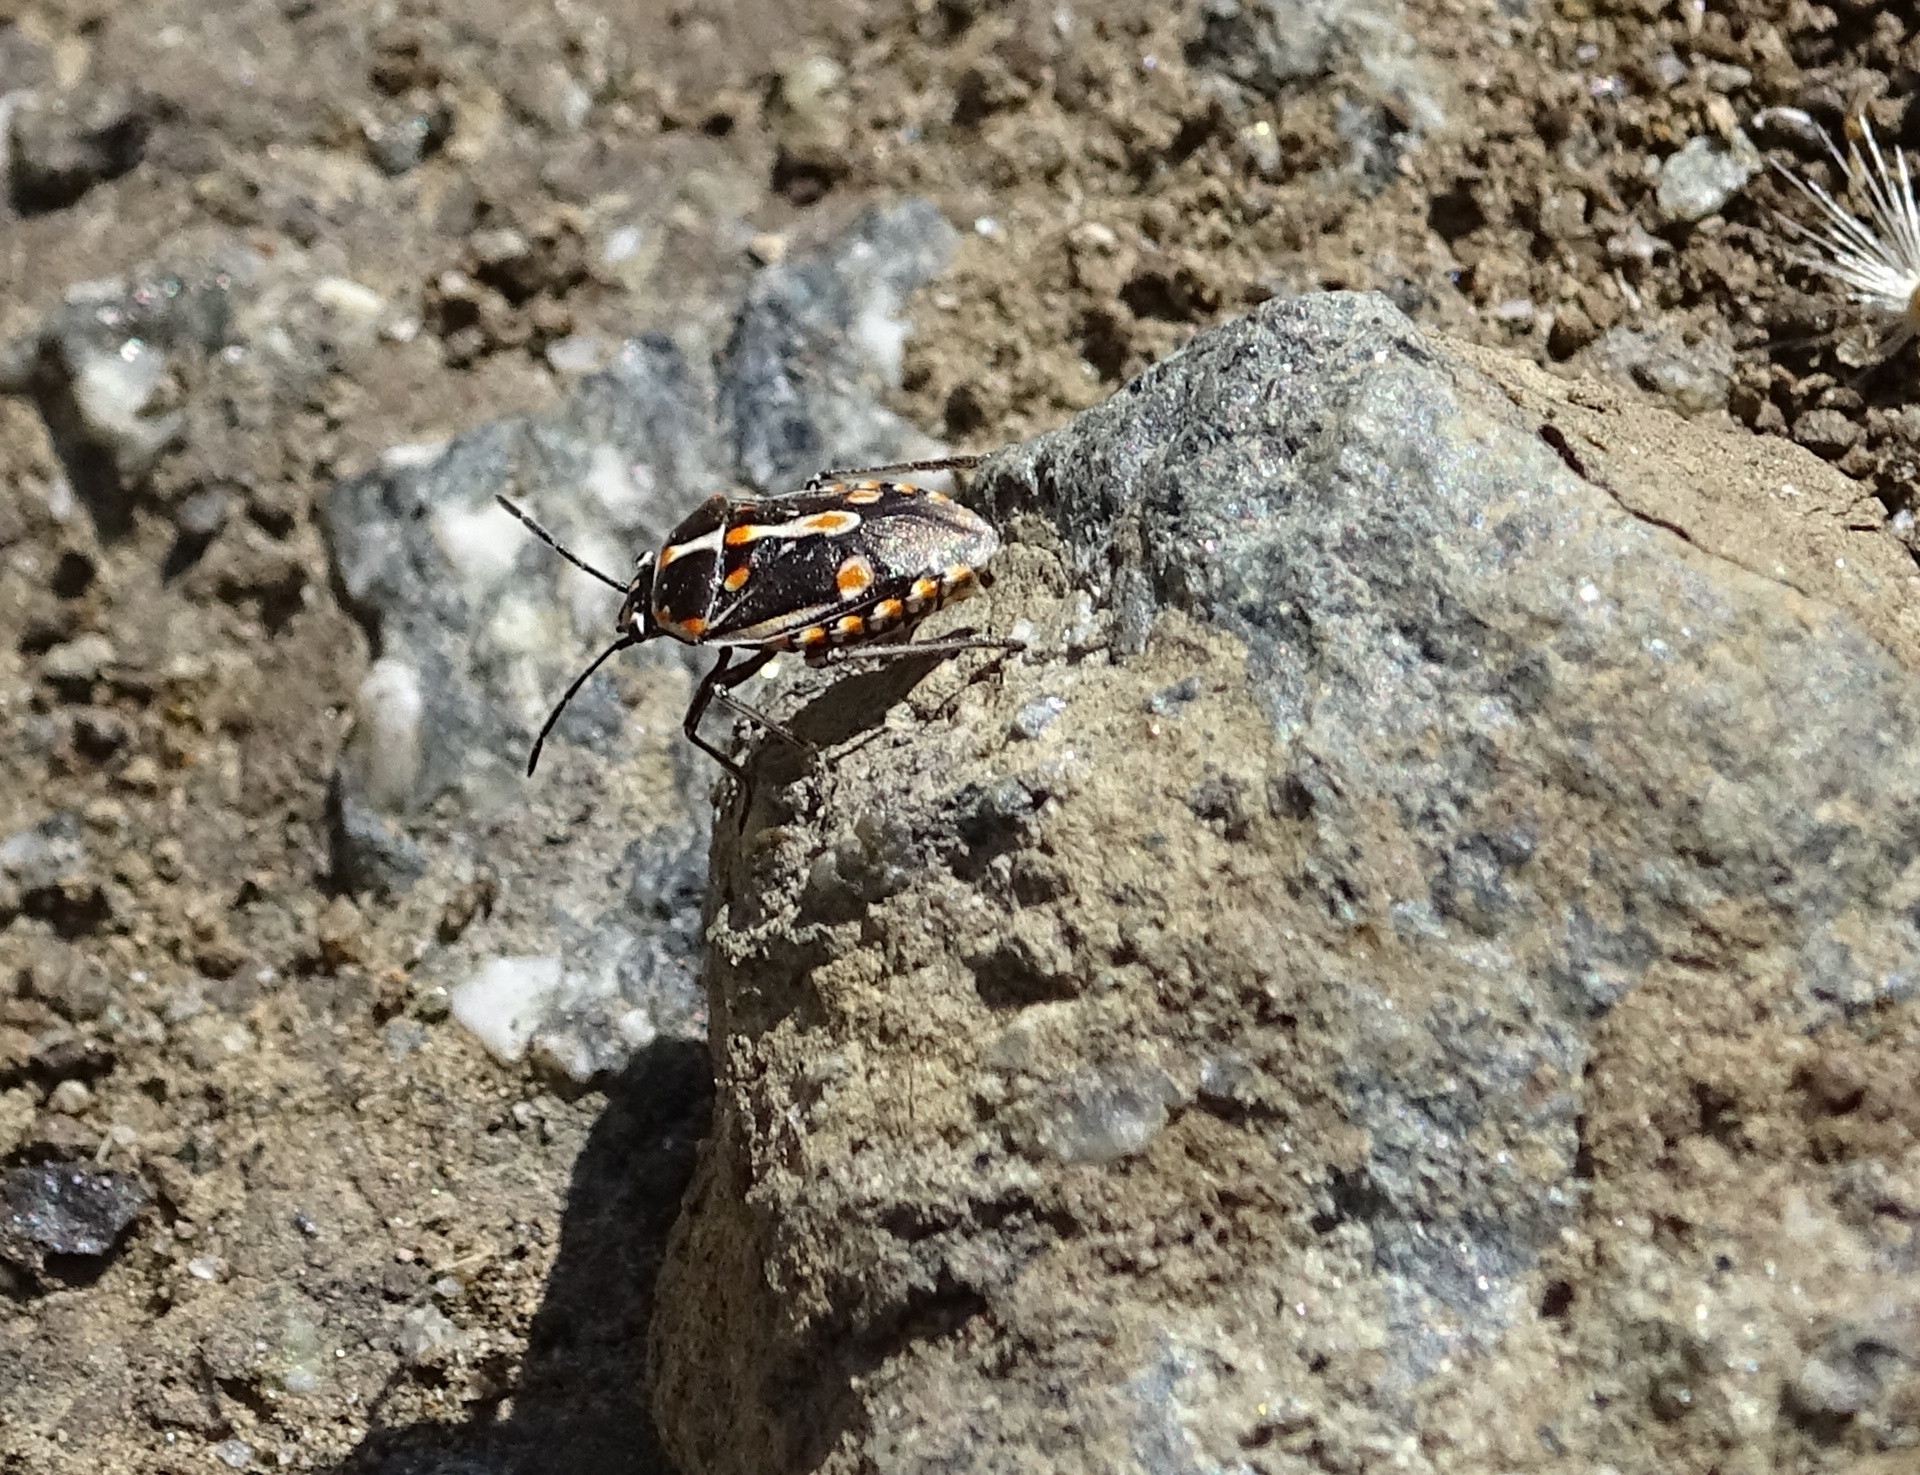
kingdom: Animalia
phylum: Arthropoda
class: Insecta
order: Hemiptera
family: Pentatomidae
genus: Bagrada
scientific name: Bagrada hilaris
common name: Bagrada bug
